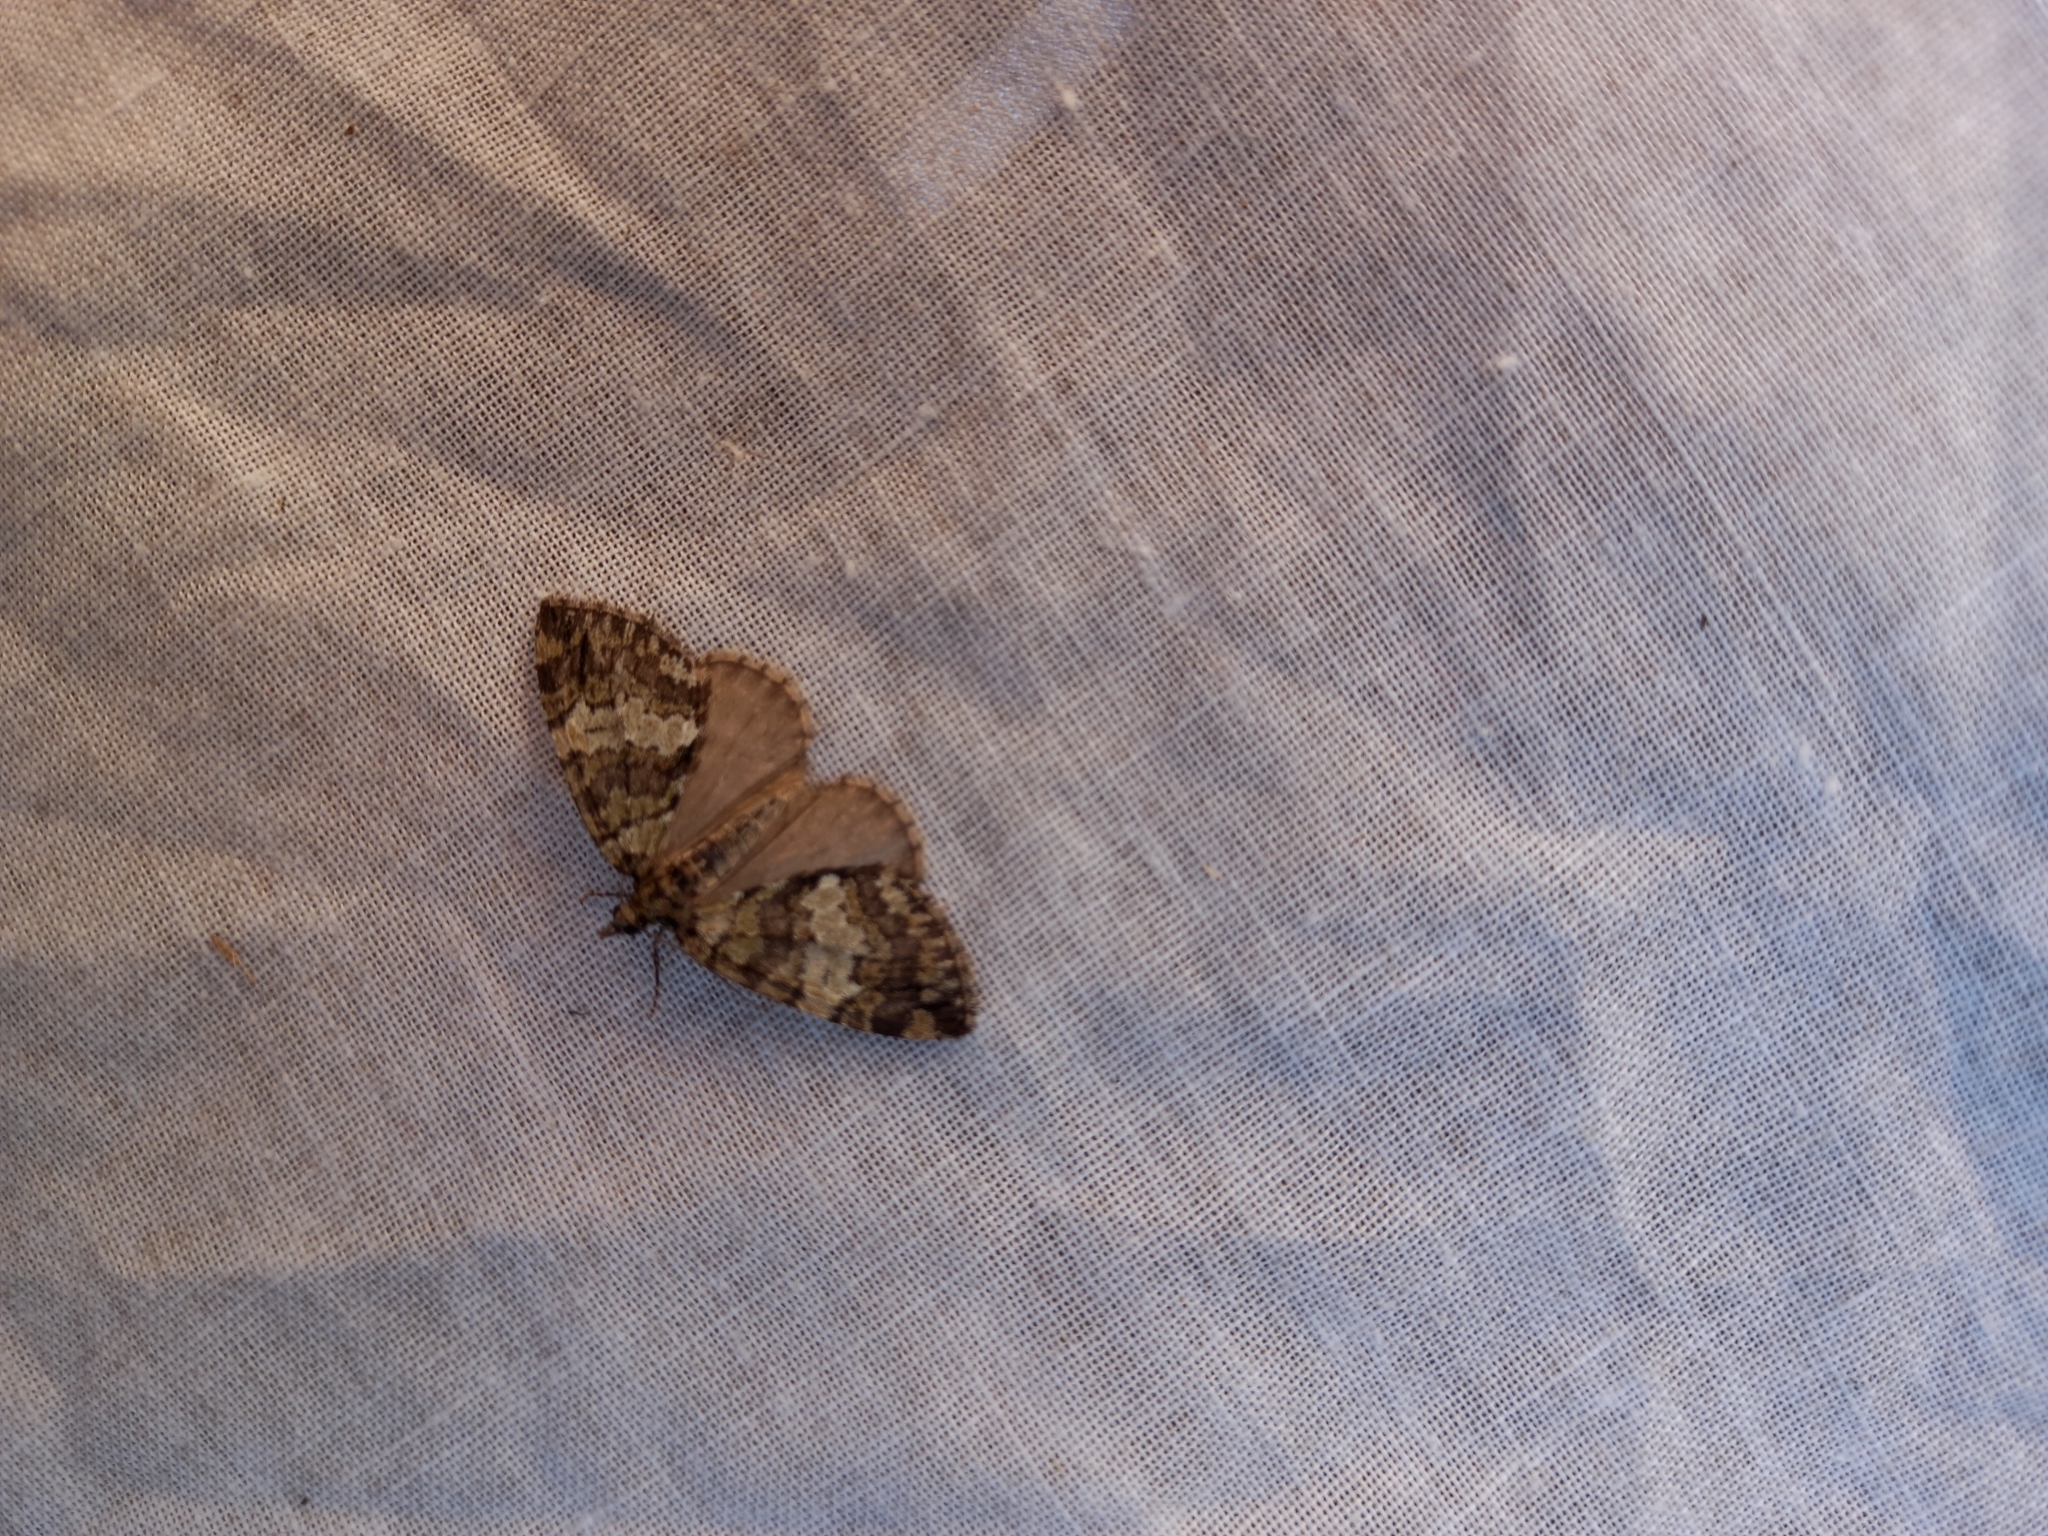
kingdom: Animalia
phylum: Arthropoda
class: Insecta
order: Lepidoptera
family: Geometridae
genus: Hydriomena
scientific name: Hydriomena impluviata
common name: May highflyer
